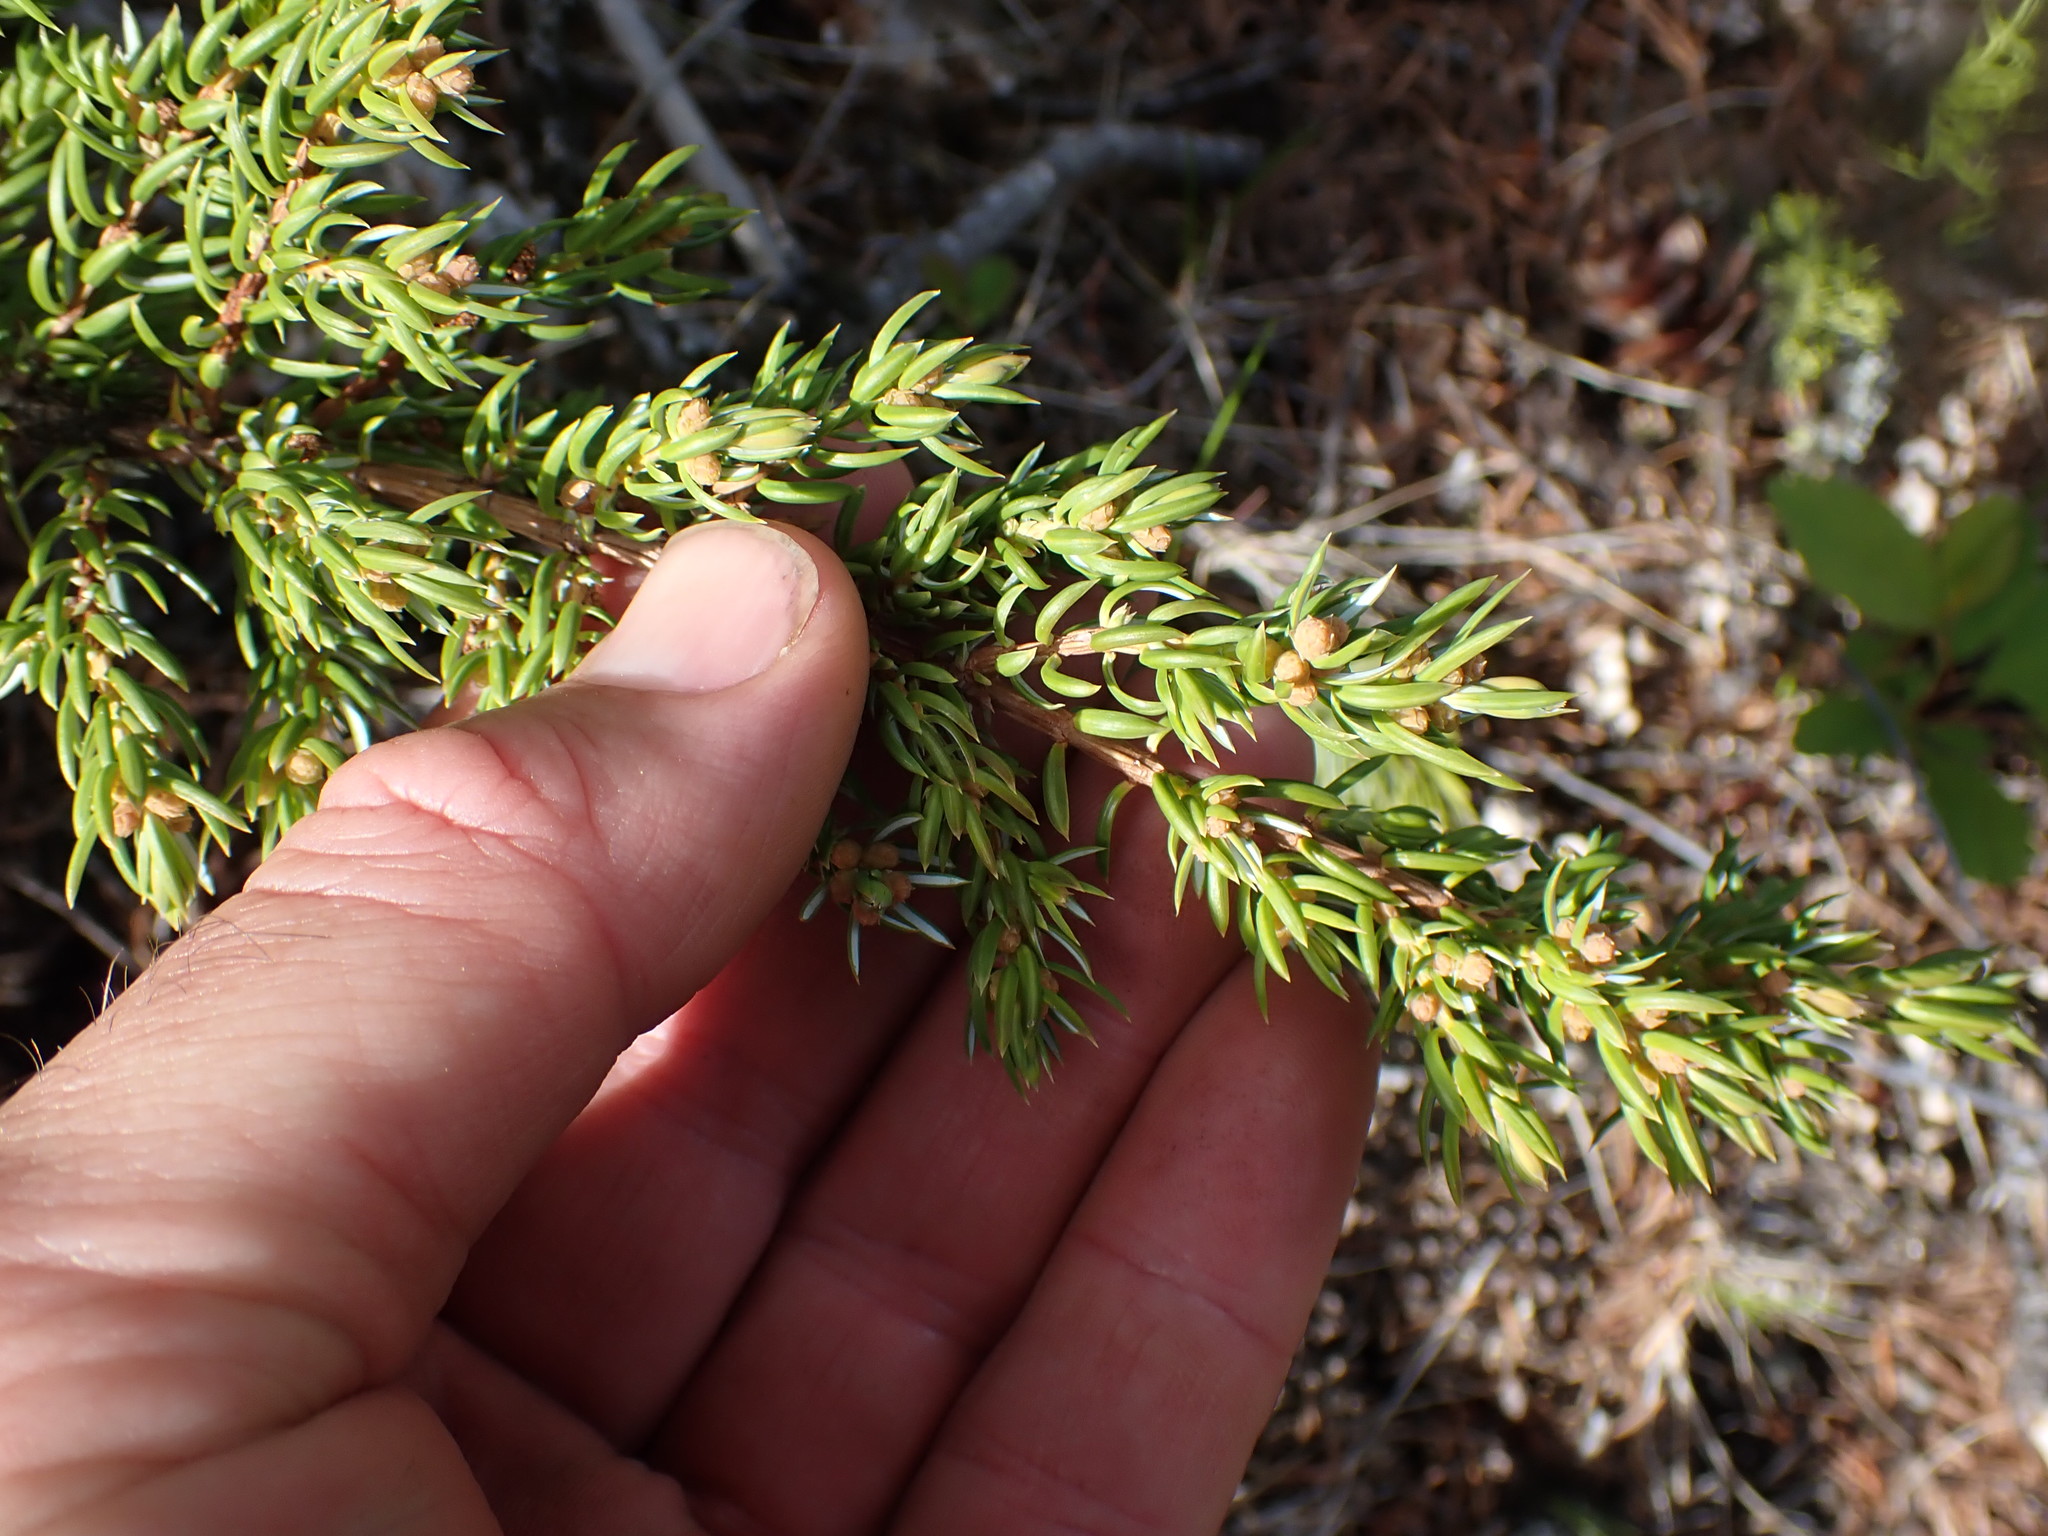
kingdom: Plantae
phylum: Tracheophyta
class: Pinopsida
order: Pinales
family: Cupressaceae
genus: Juniperus
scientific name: Juniperus communis
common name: Common juniper
